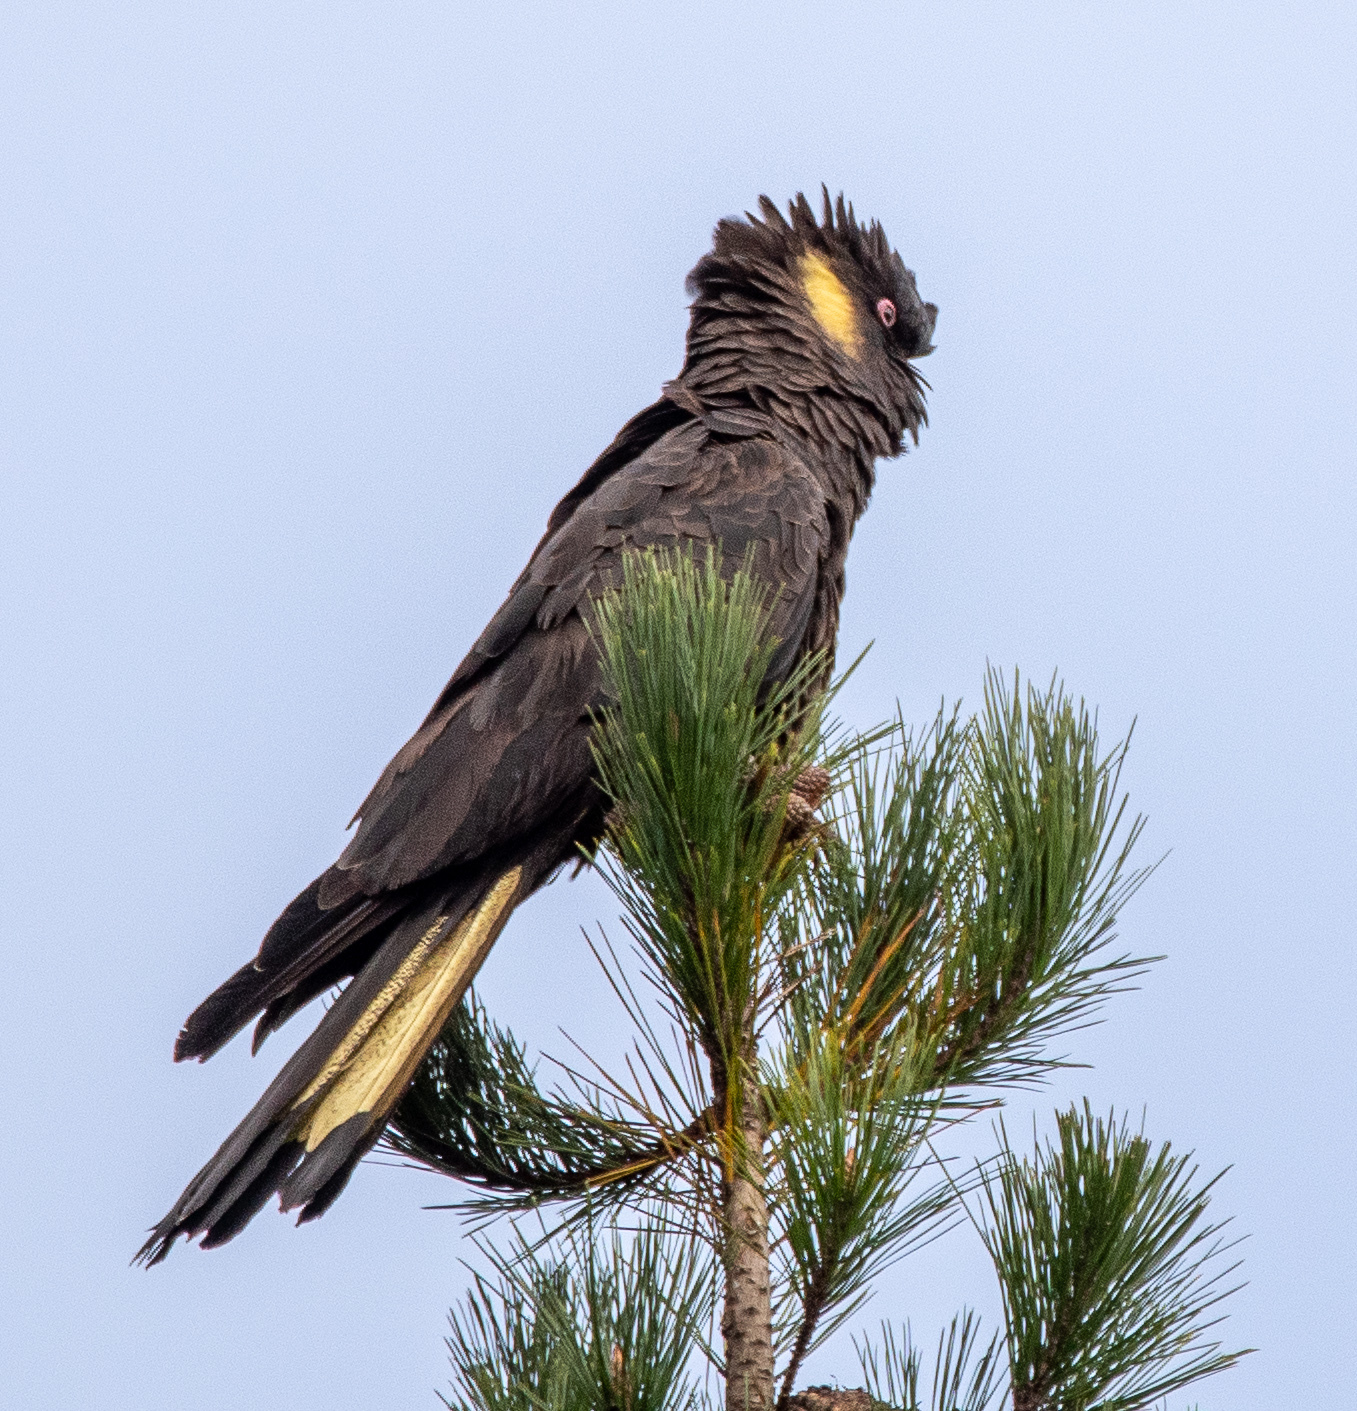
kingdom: Animalia
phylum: Chordata
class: Aves
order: Psittaciformes
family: Cacatuidae
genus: Zanda
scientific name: Zanda funerea
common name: Yellow-tailed black-cockatoo
